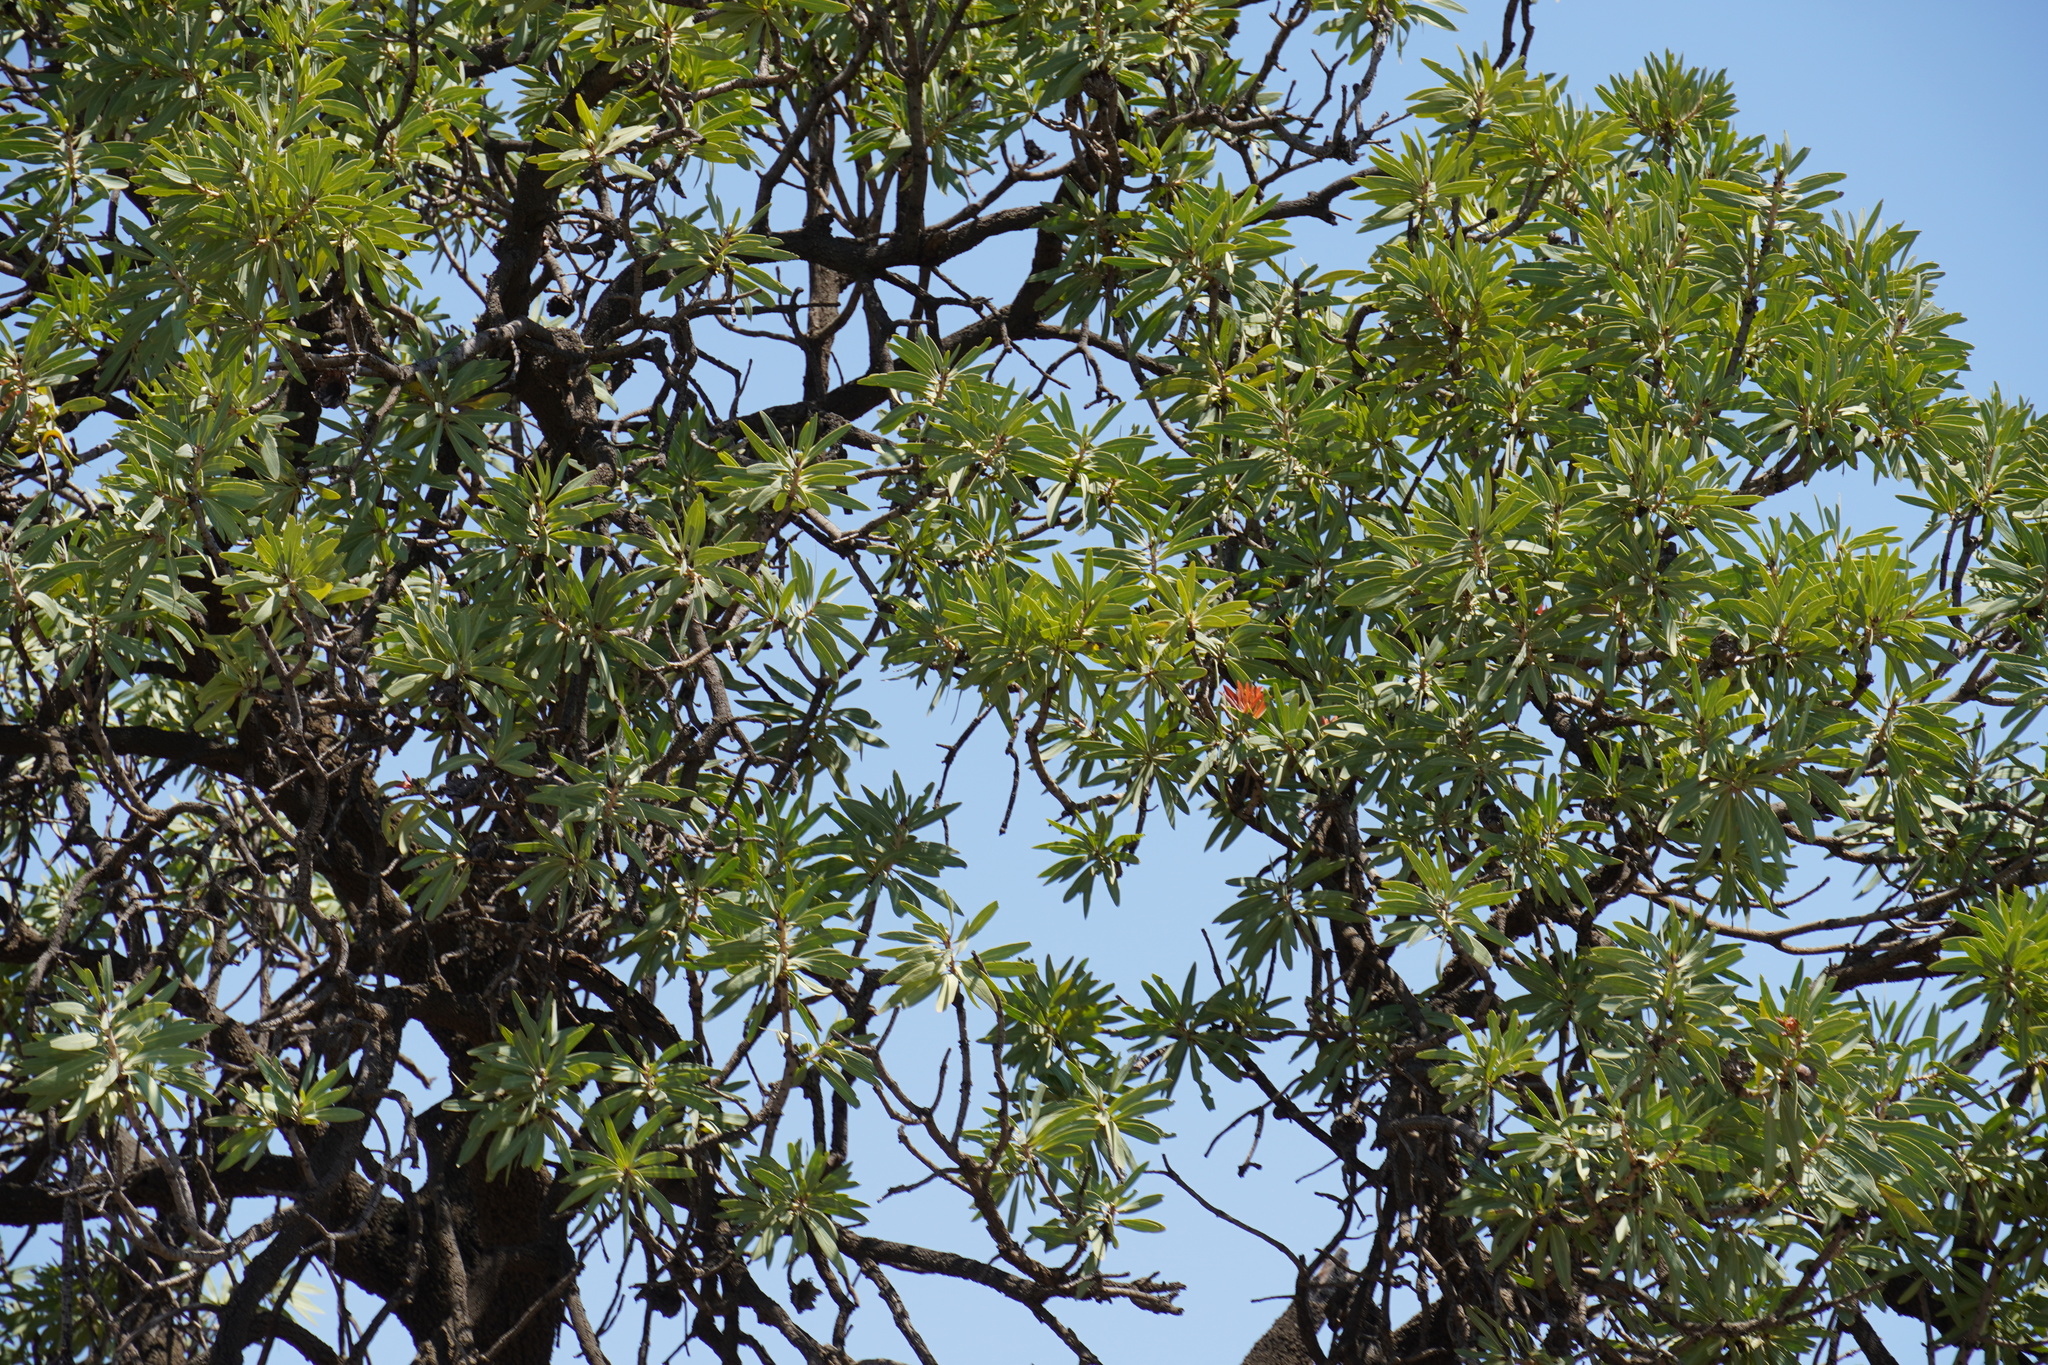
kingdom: Plantae
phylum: Tracheophyta
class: Magnoliopsida
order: Proteales
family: Proteaceae
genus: Protea
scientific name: Protea caffra
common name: Common sugarbush
